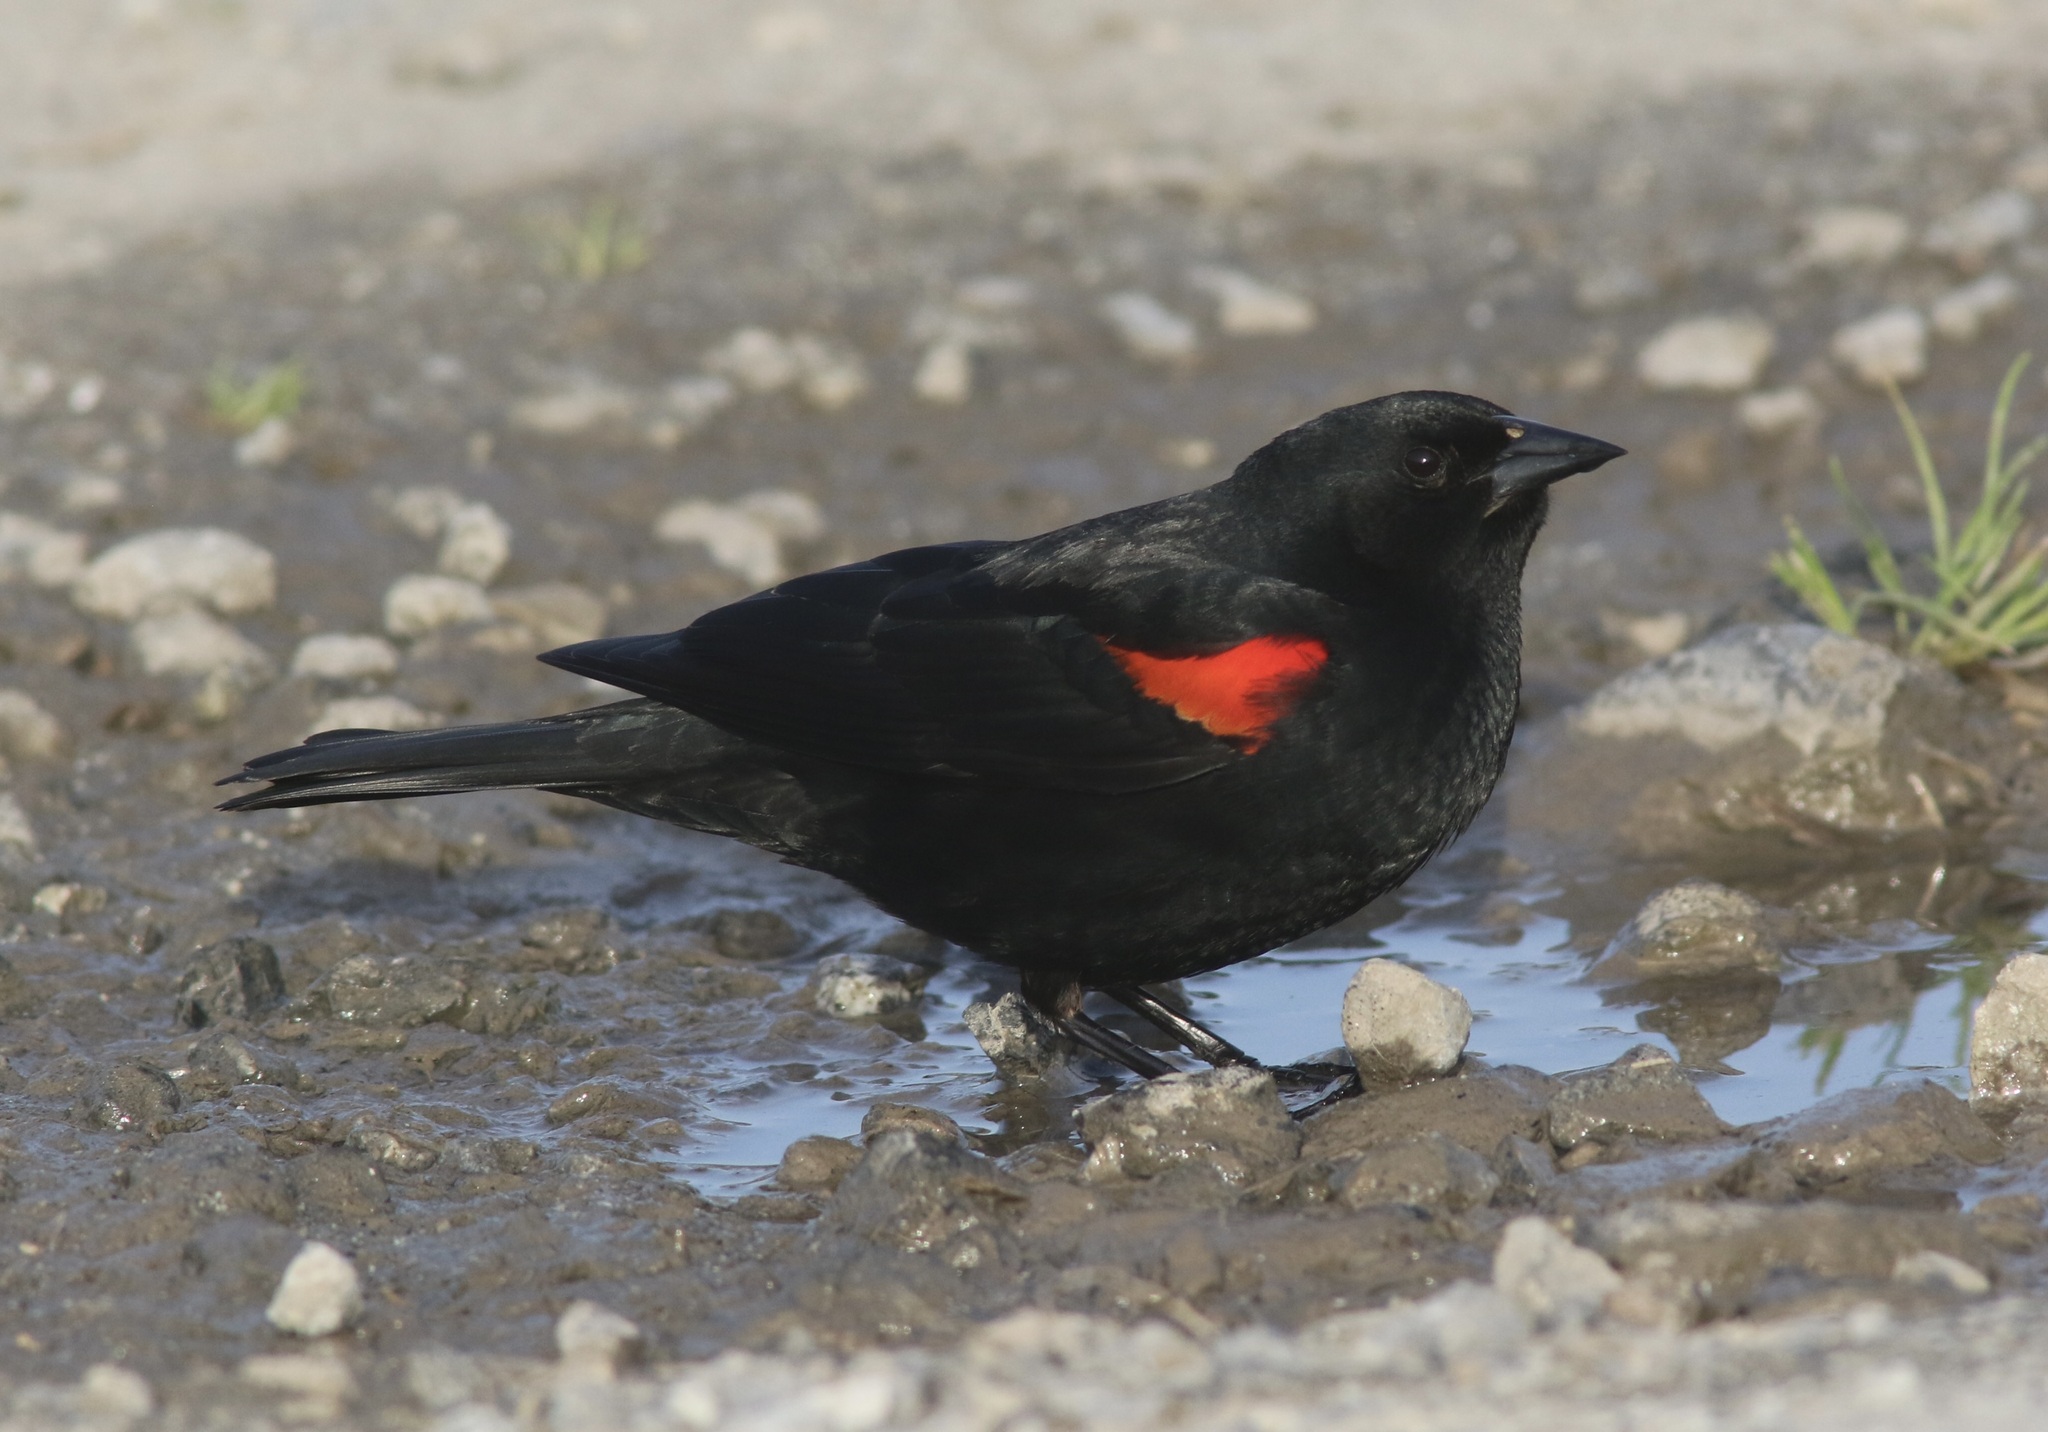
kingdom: Animalia
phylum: Chordata
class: Aves
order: Passeriformes
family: Icteridae
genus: Agelaius
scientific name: Agelaius phoeniceus
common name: Red-winged blackbird
